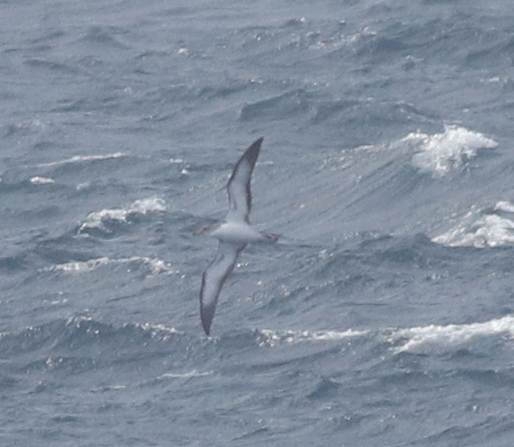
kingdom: Animalia
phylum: Chordata
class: Aves
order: Procellariiformes
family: Procellariidae
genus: Calonectris
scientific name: Calonectris diomedea
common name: Cory's shearwater
